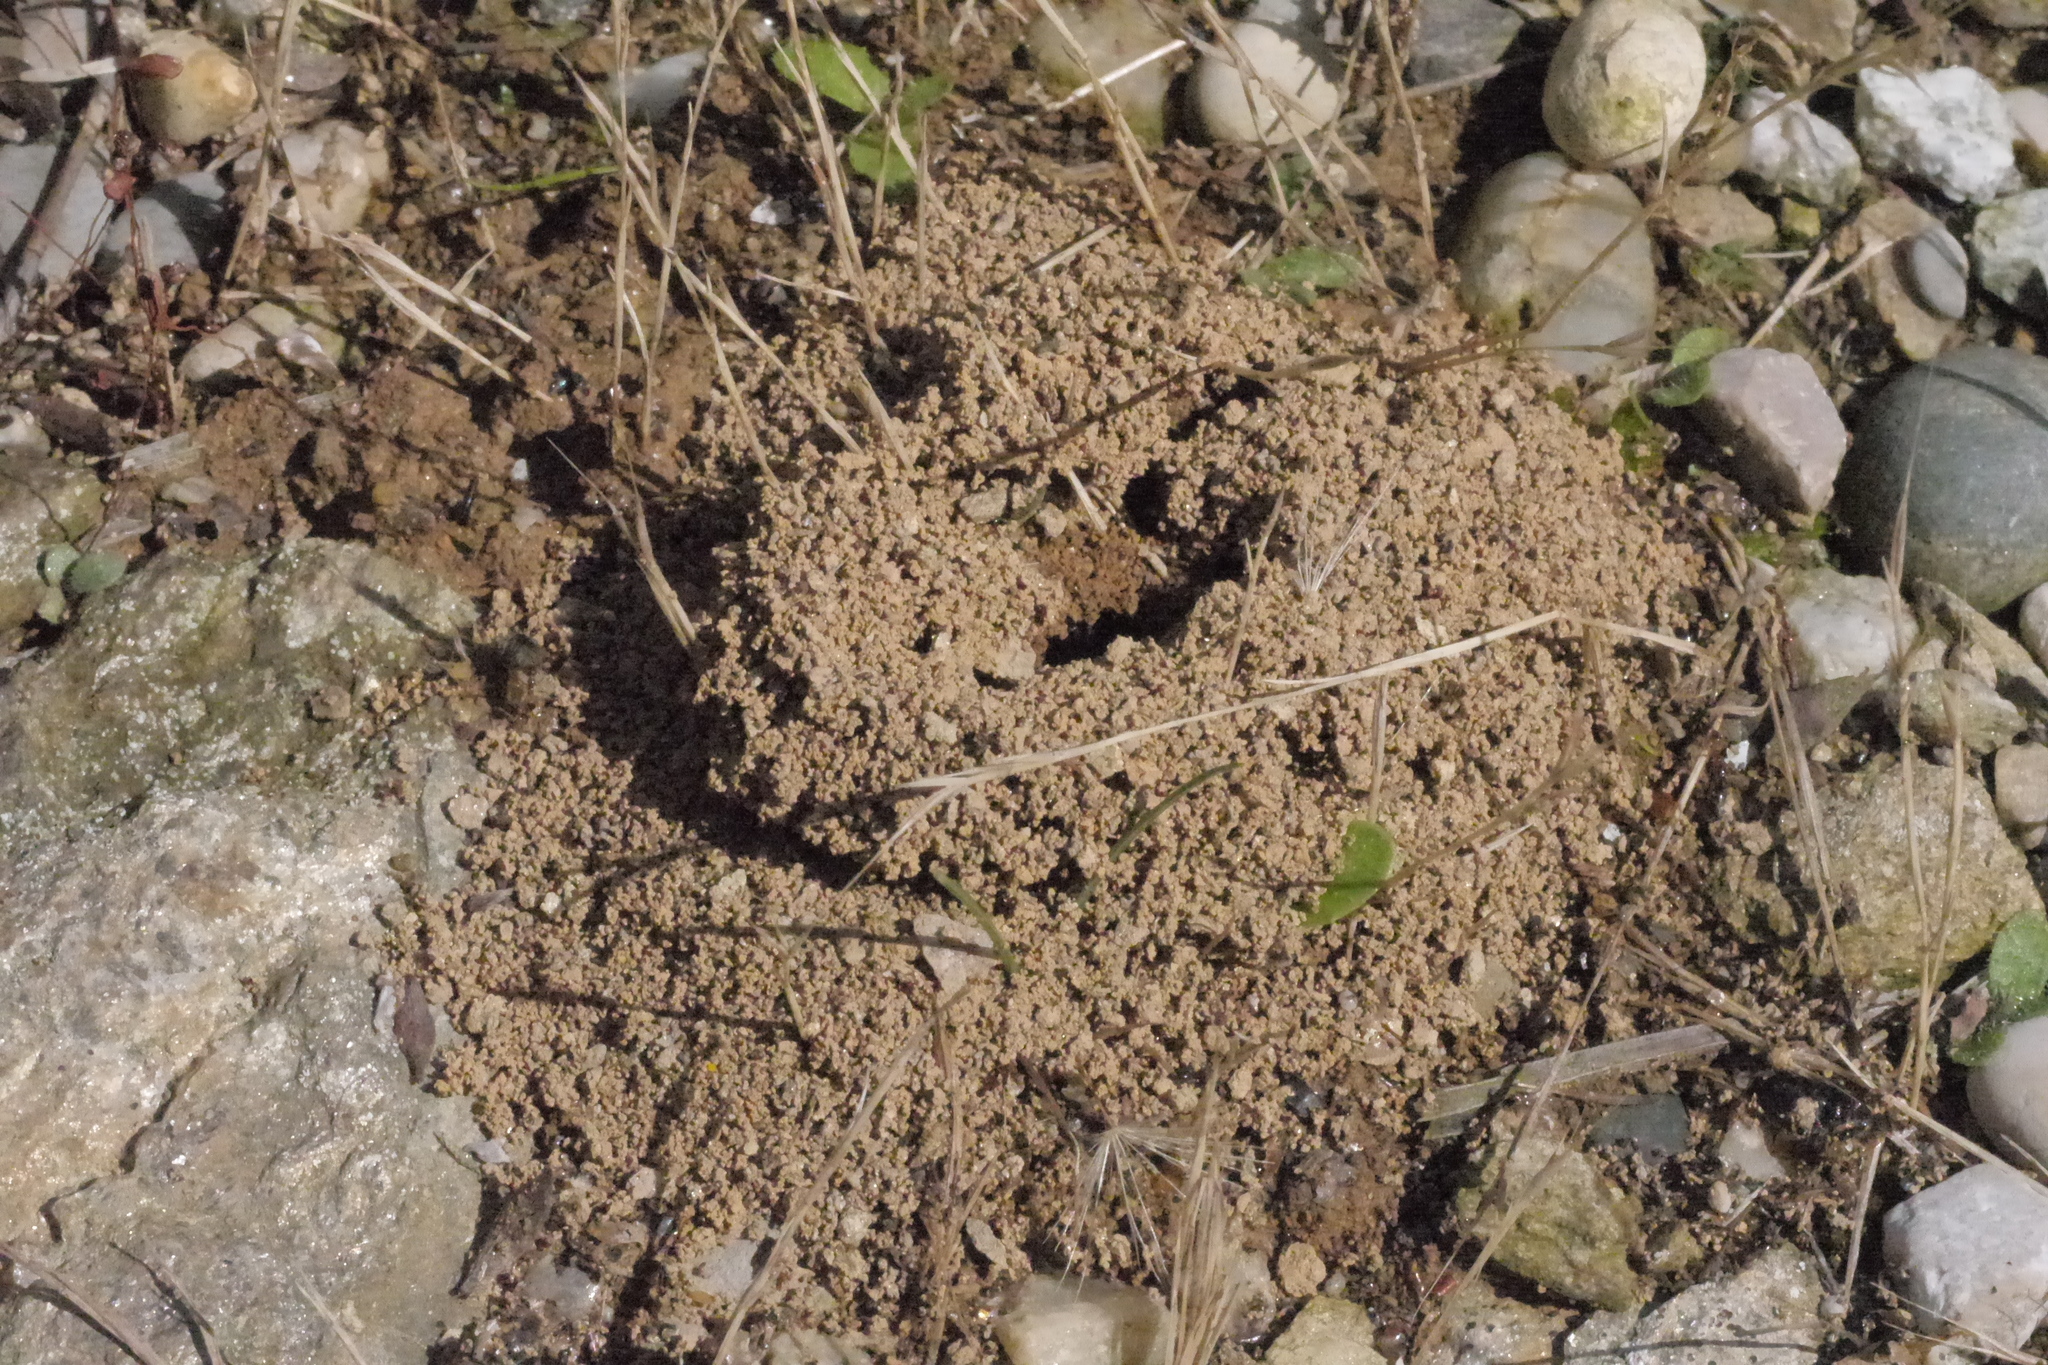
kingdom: Animalia
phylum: Arthropoda
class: Insecta
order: Hymenoptera
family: Formicidae
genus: Pheidole
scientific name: Pheidole pallidula
